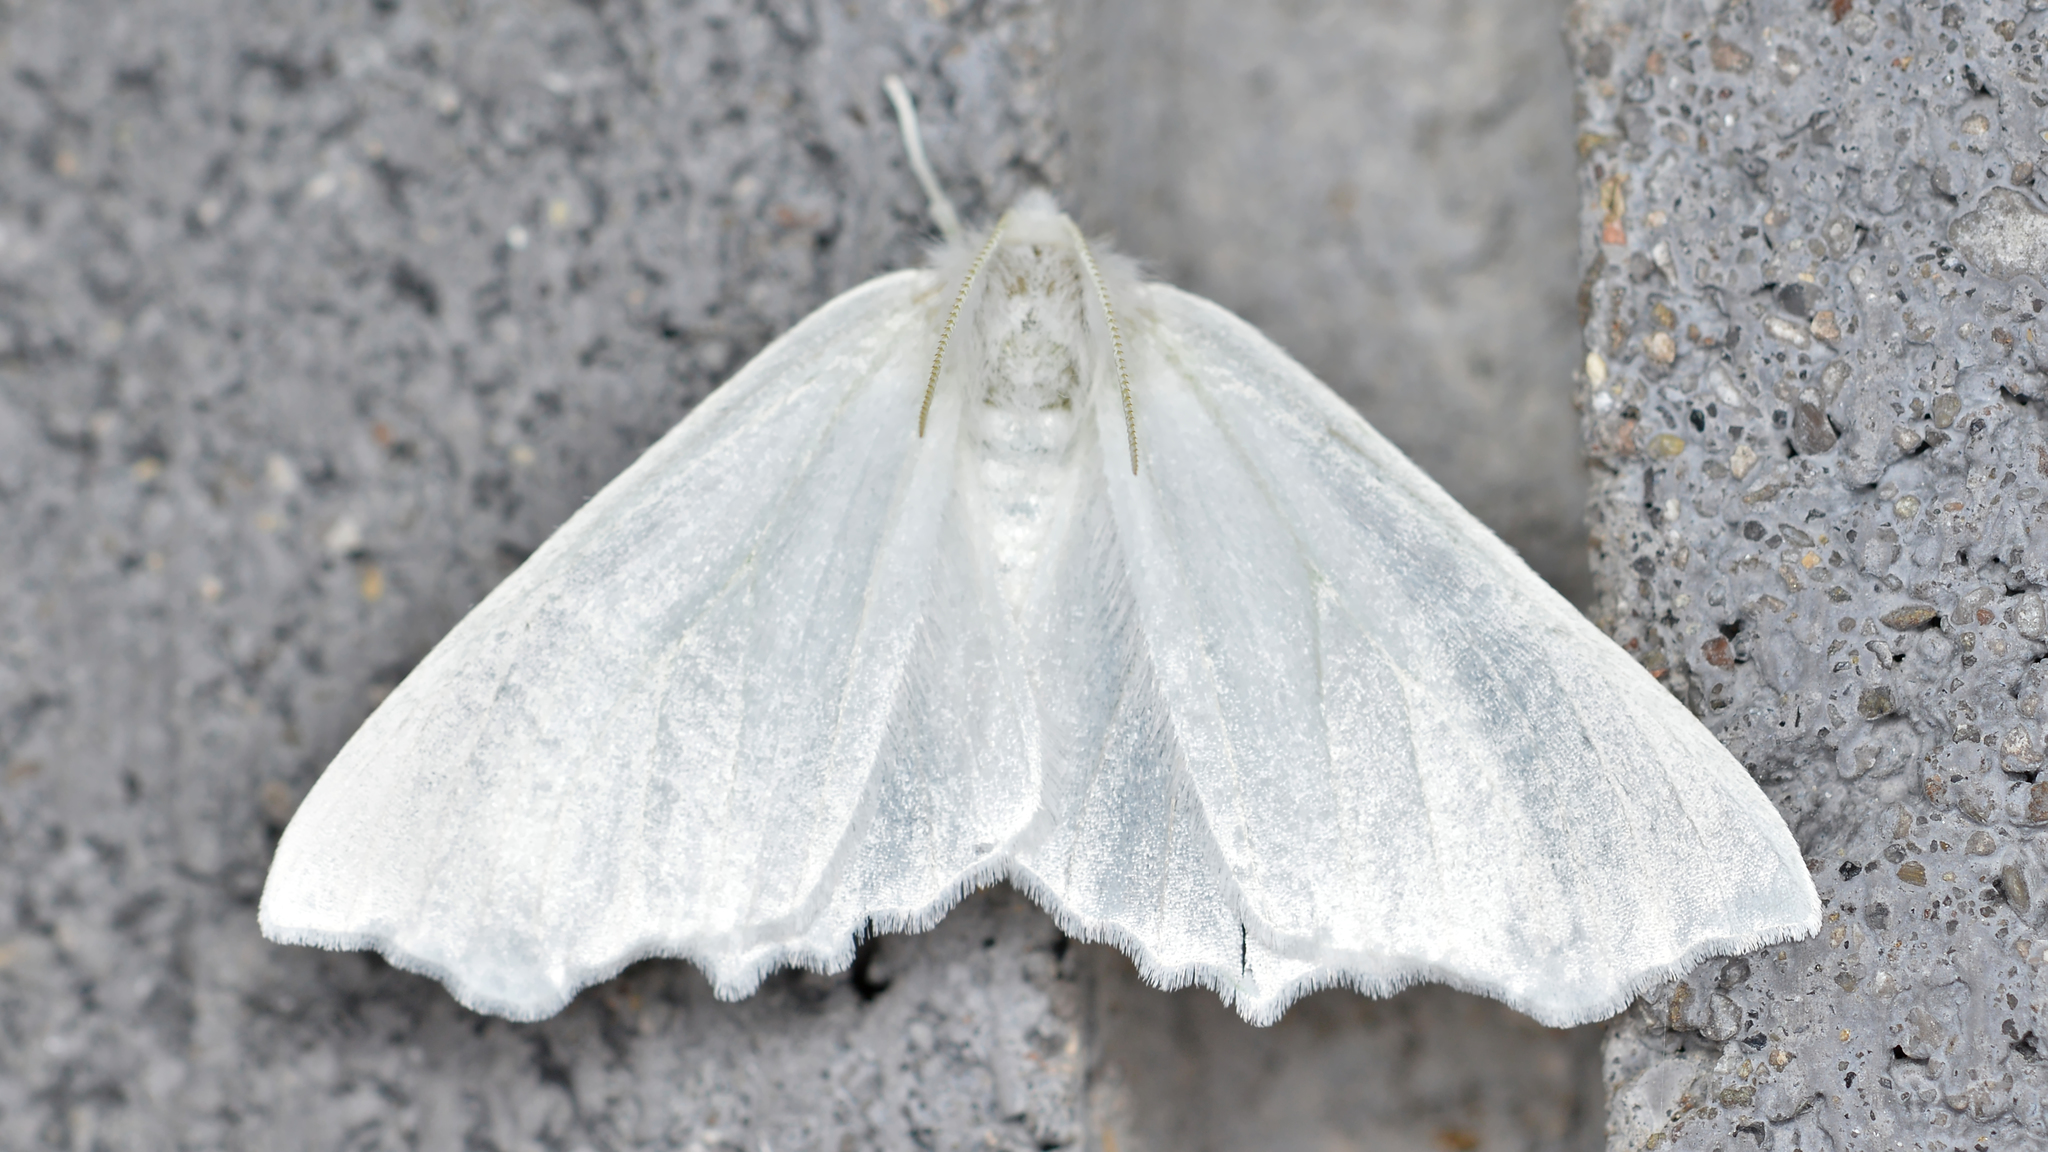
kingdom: Animalia
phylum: Arthropoda
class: Insecta
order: Lepidoptera
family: Geometridae
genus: Ennomos
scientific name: Ennomos subsignaria
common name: Elm spanworm
